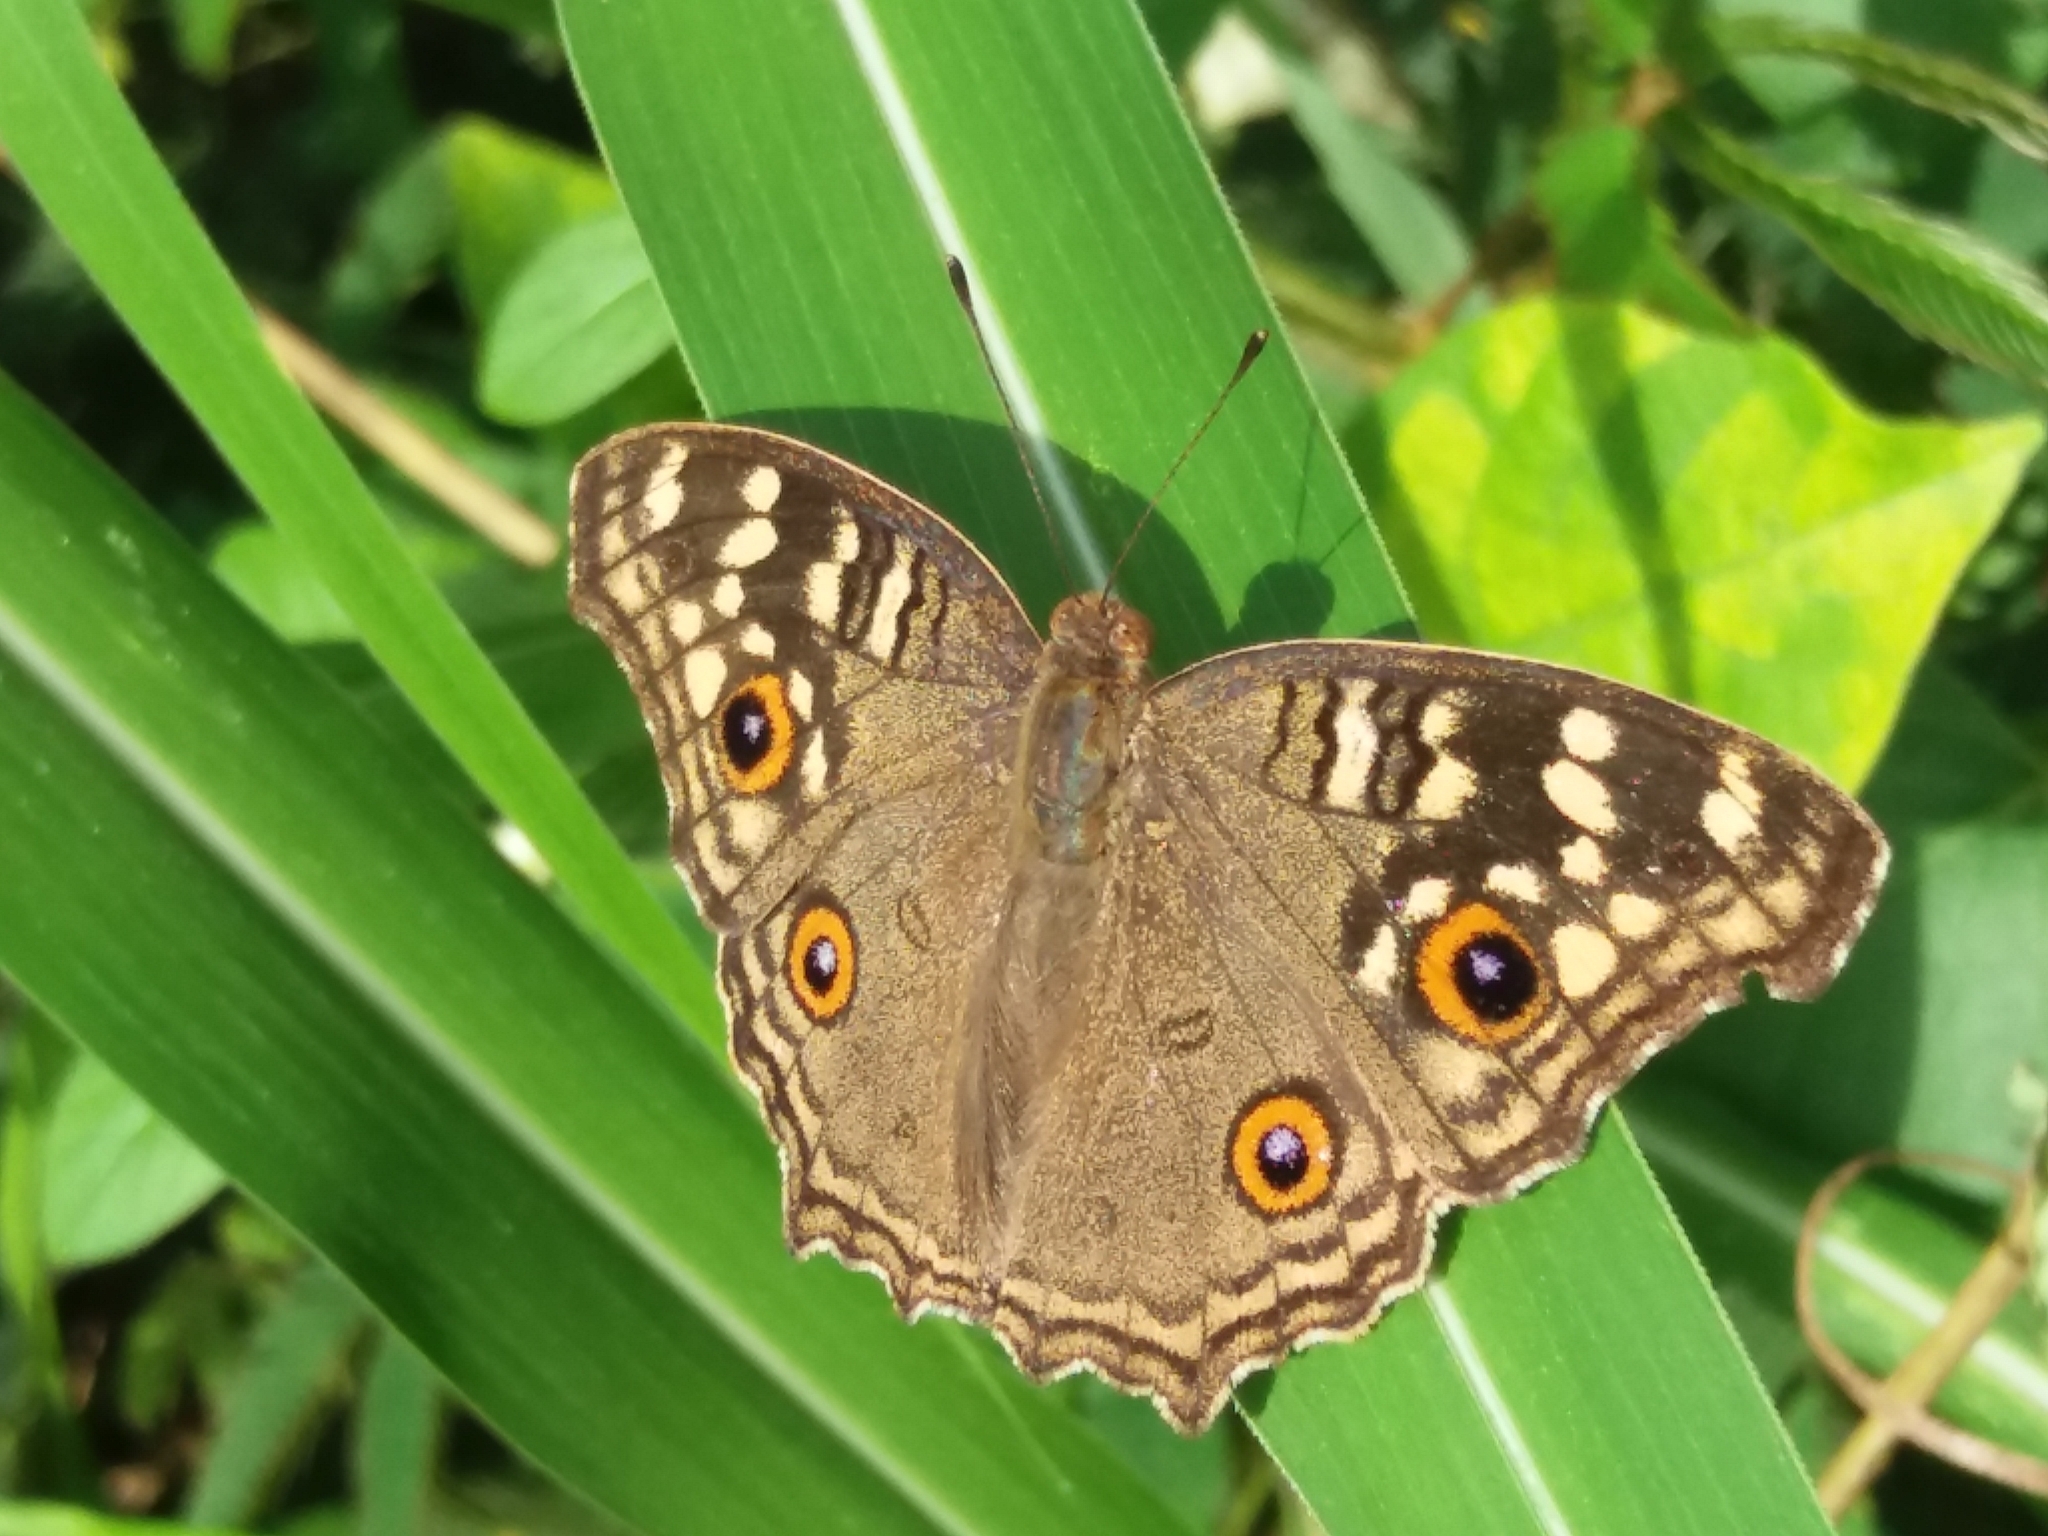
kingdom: Animalia
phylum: Arthropoda
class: Insecta
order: Lepidoptera
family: Nymphalidae
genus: Junonia
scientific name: Junonia lemonias
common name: Lemon pansy
